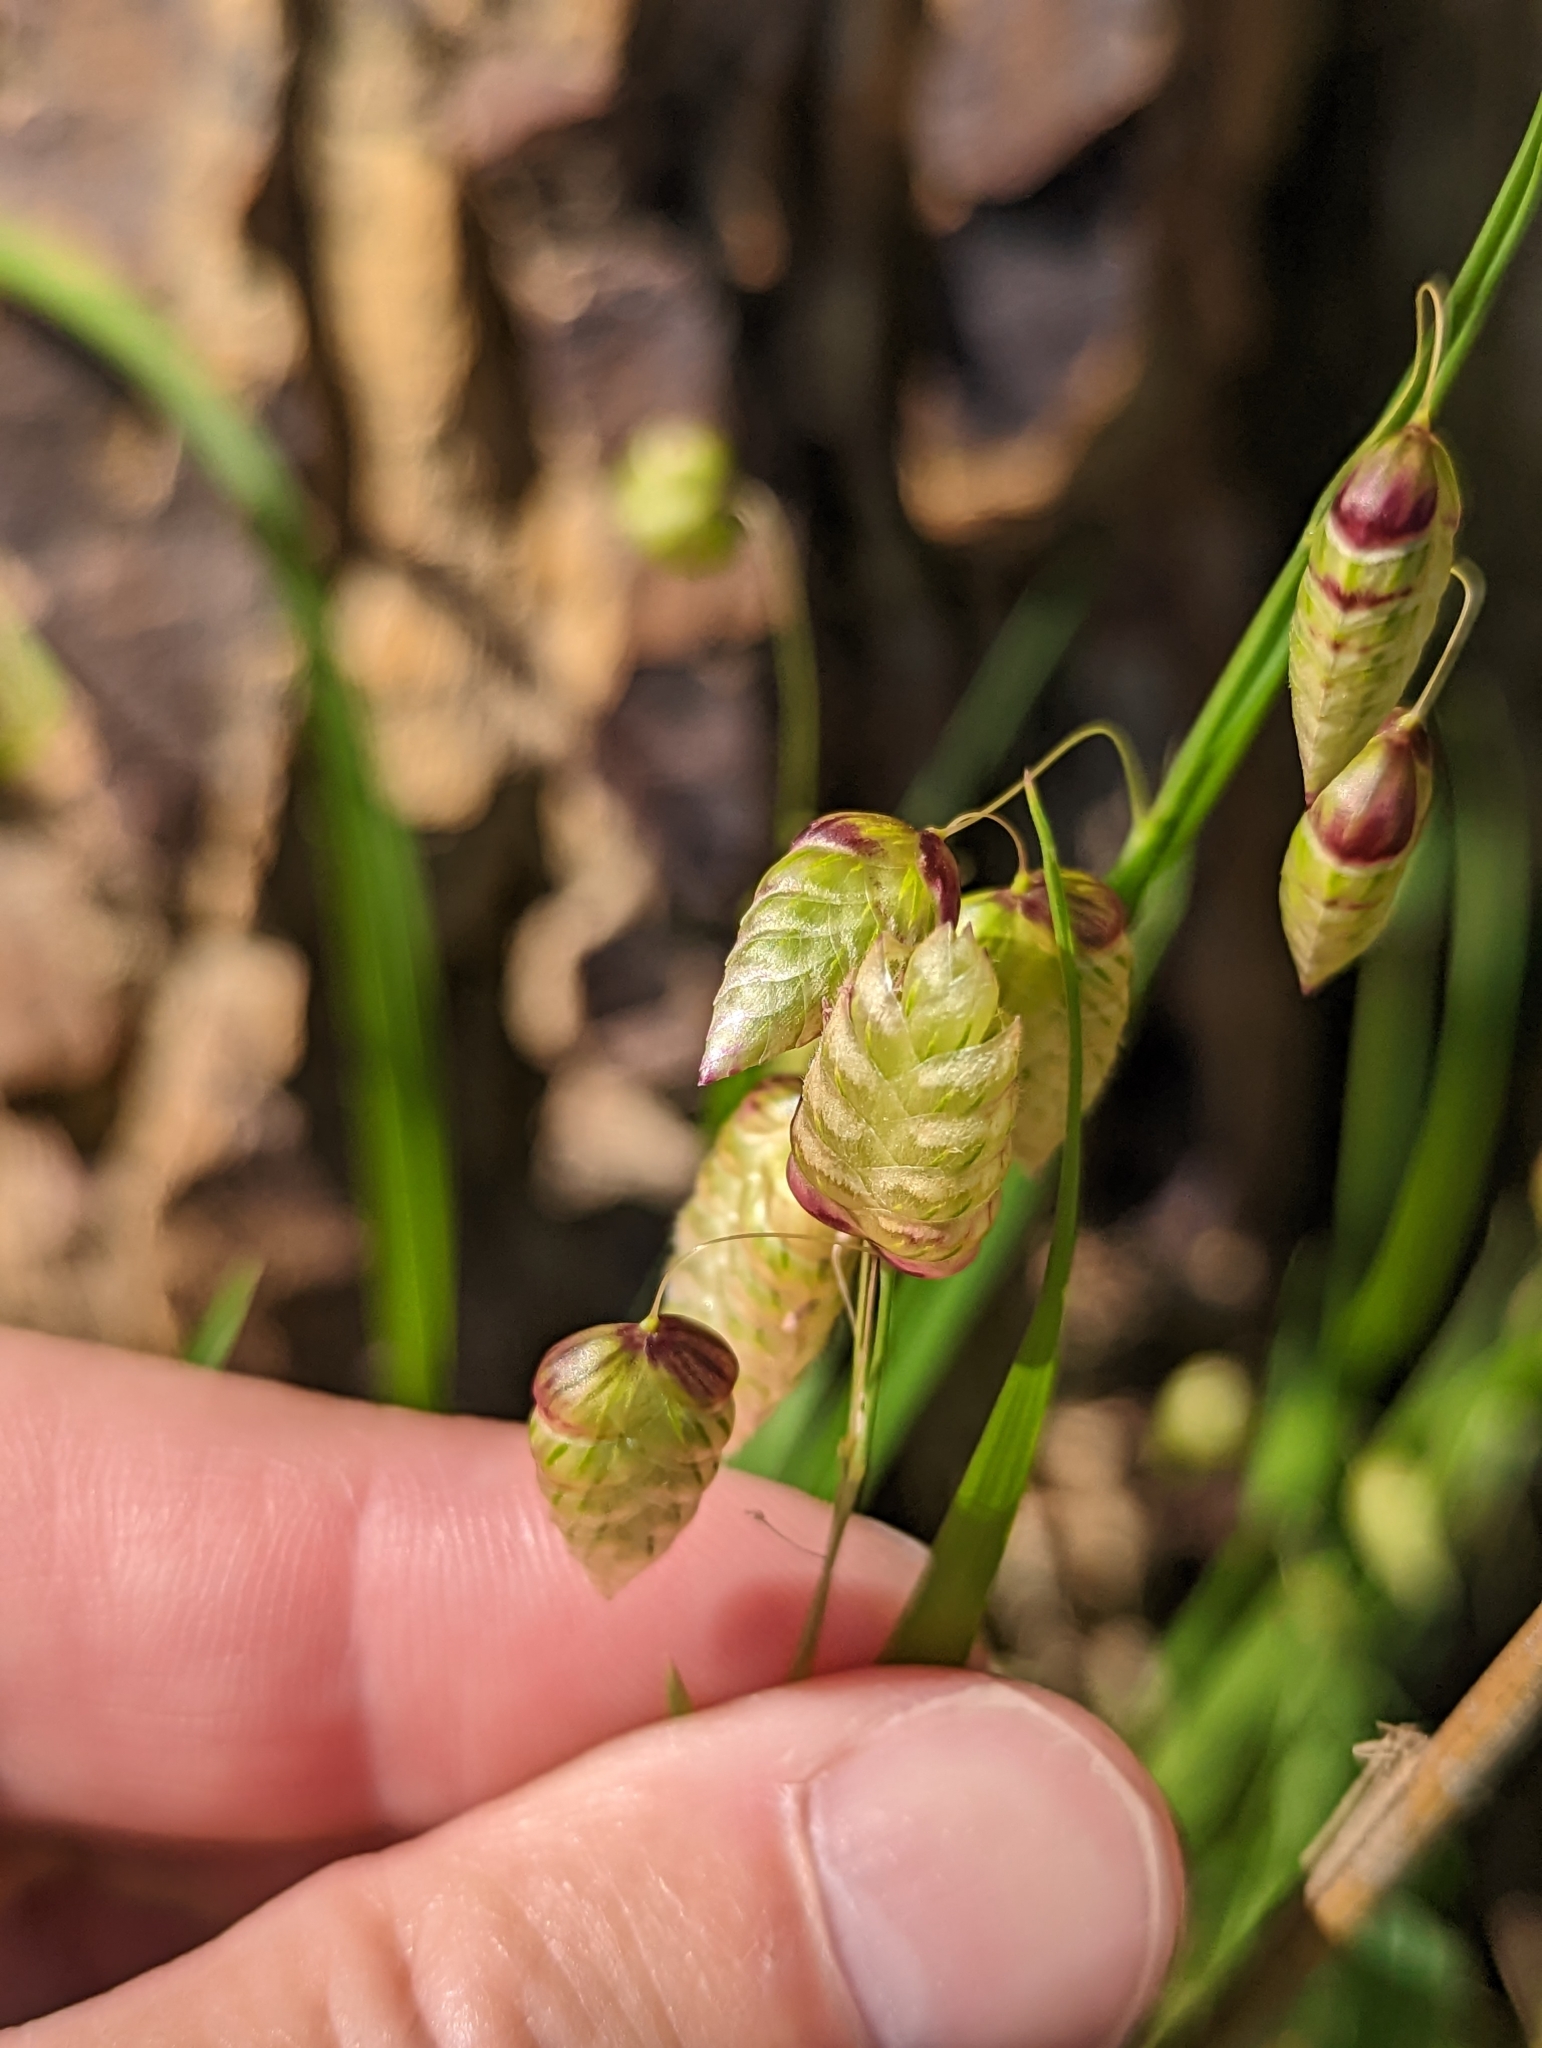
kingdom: Plantae
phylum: Tracheophyta
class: Liliopsida
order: Poales
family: Poaceae
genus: Briza
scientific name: Briza maxima
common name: Big quakinggrass
